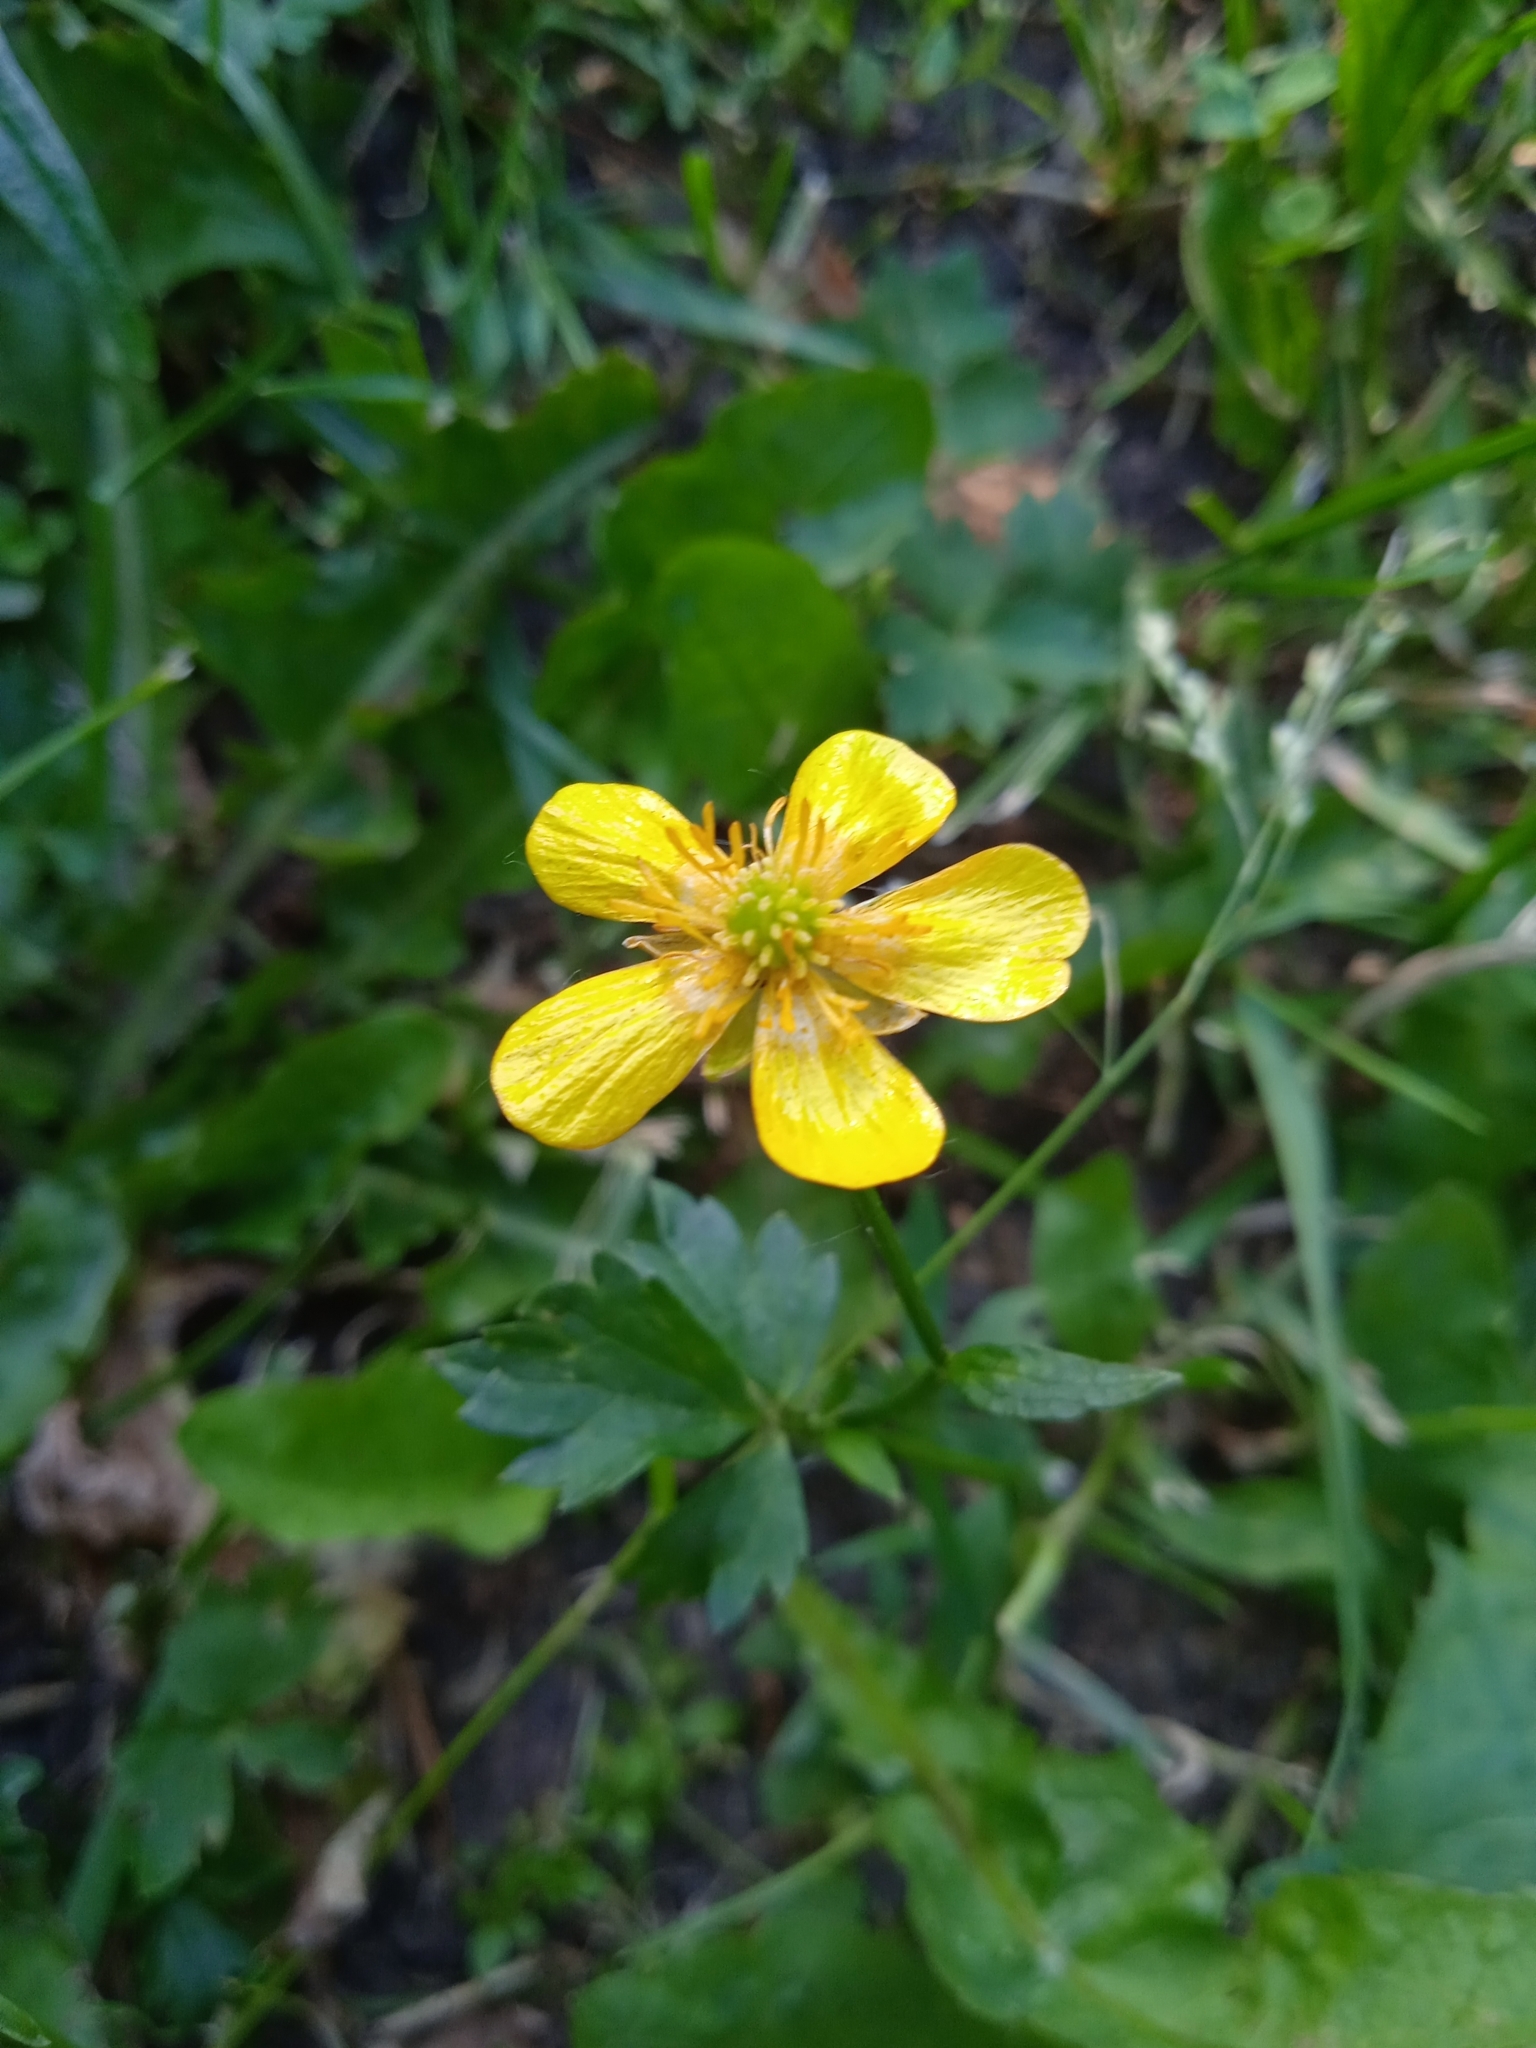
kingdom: Plantae
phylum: Tracheophyta
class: Magnoliopsida
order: Ranunculales
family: Ranunculaceae
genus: Ranunculus
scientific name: Ranunculus repens
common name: Creeping buttercup
